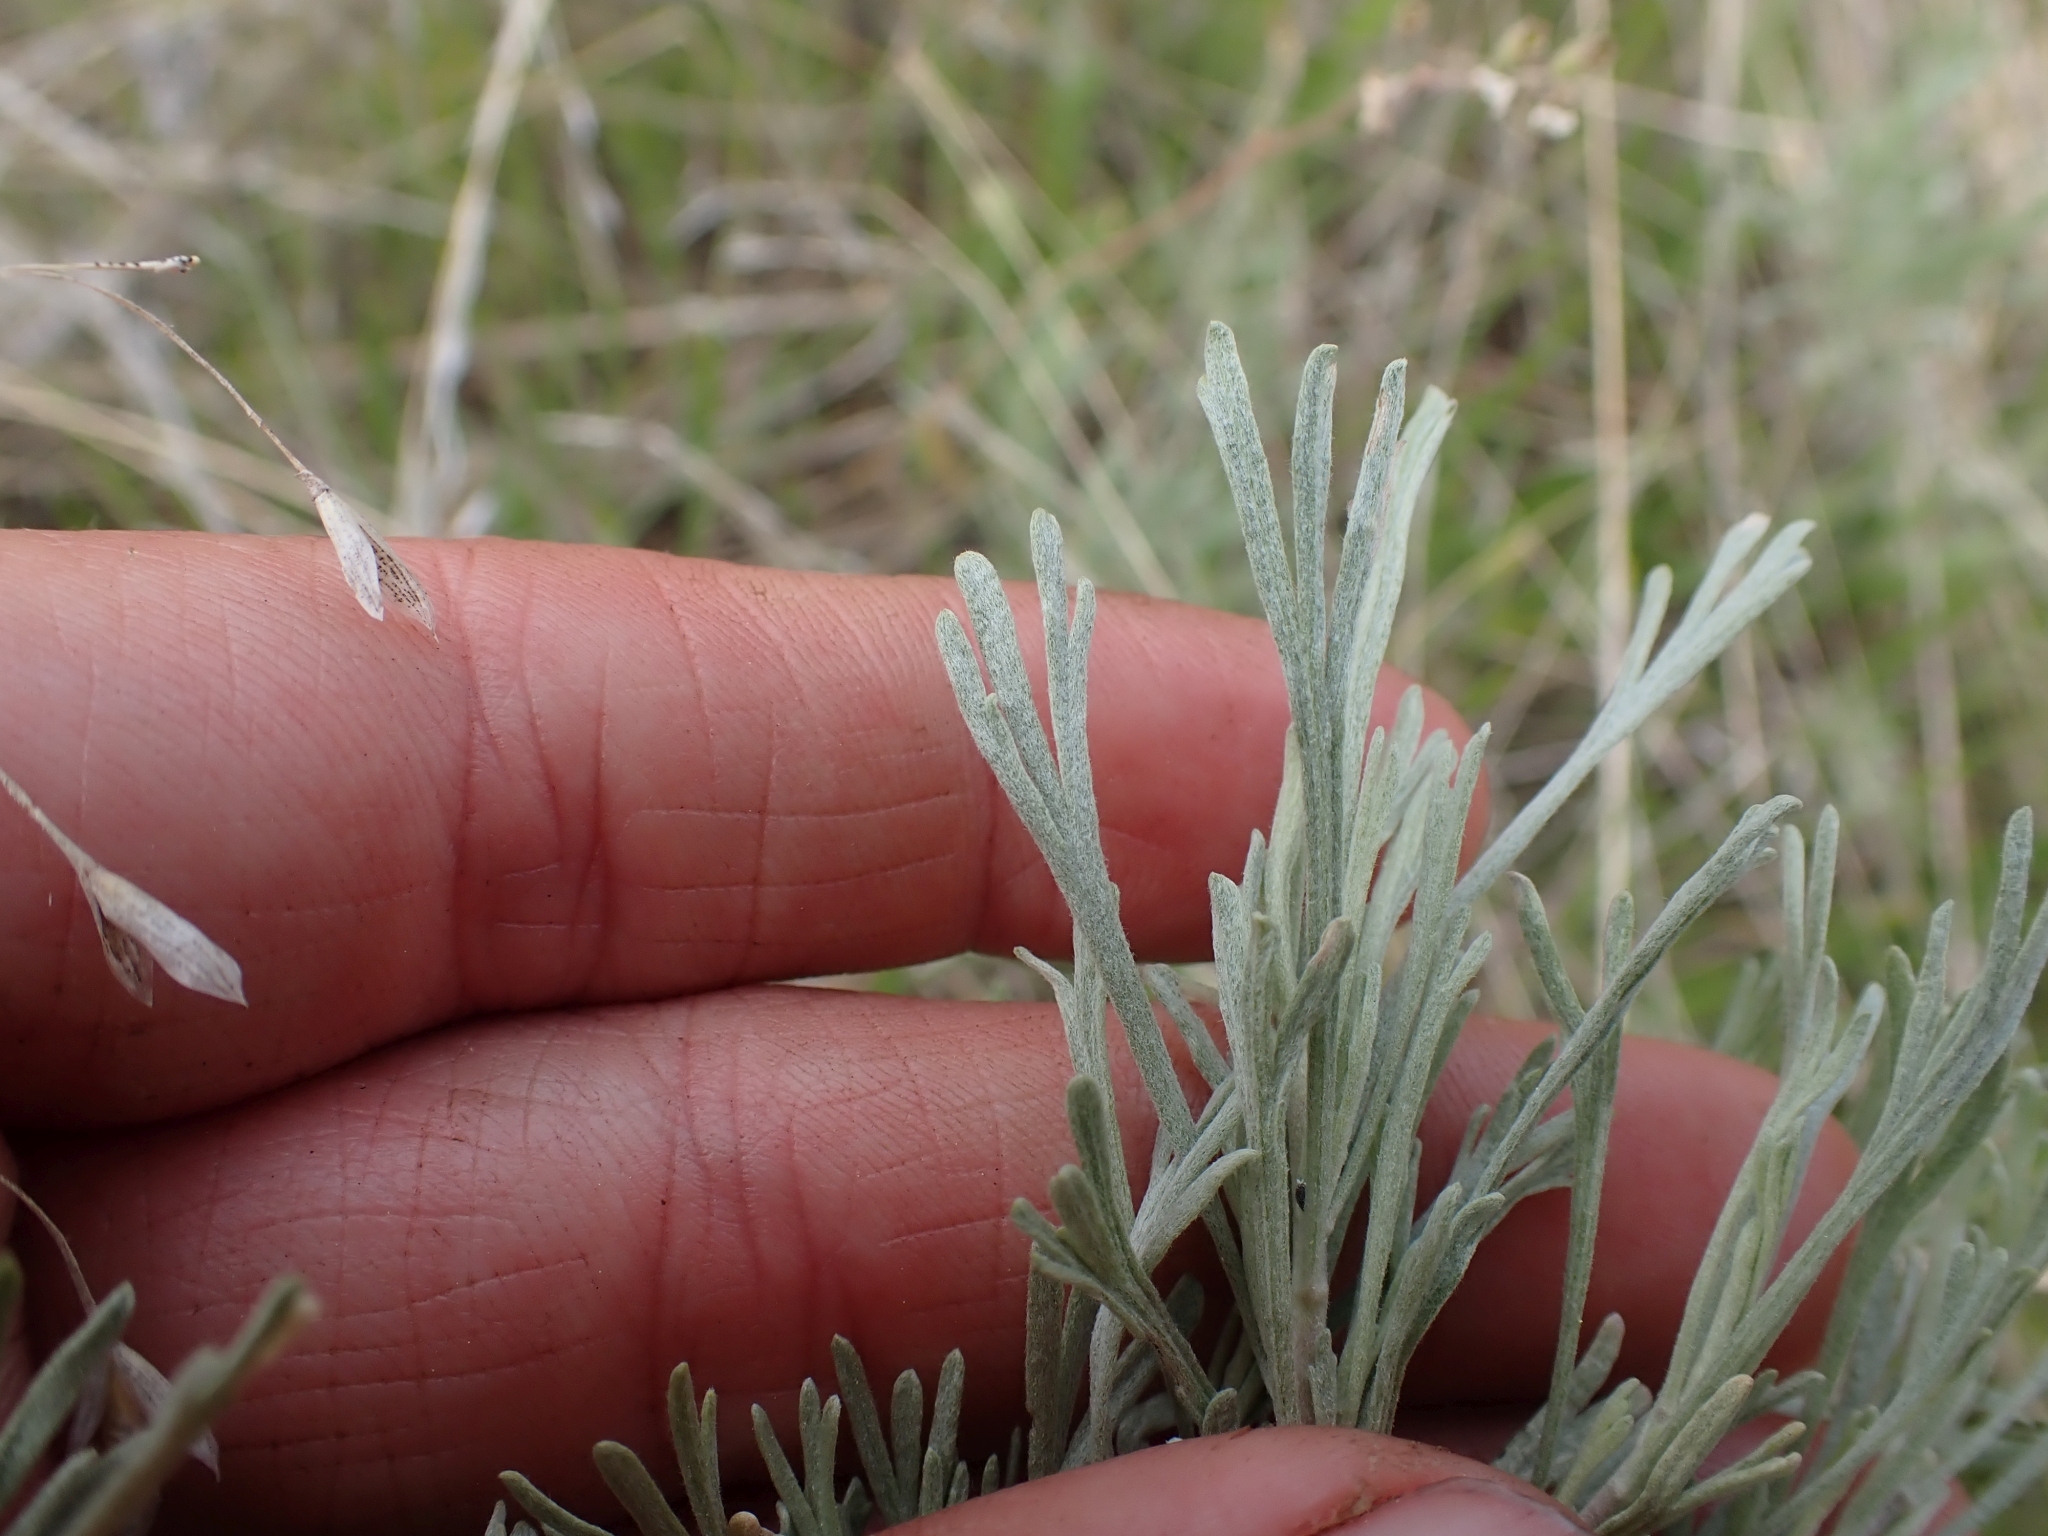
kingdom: Plantae
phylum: Tracheophyta
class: Magnoliopsida
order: Asterales
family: Asteraceae
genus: Artemisia
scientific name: Artemisia tripartita
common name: Three-tip sagebrush
